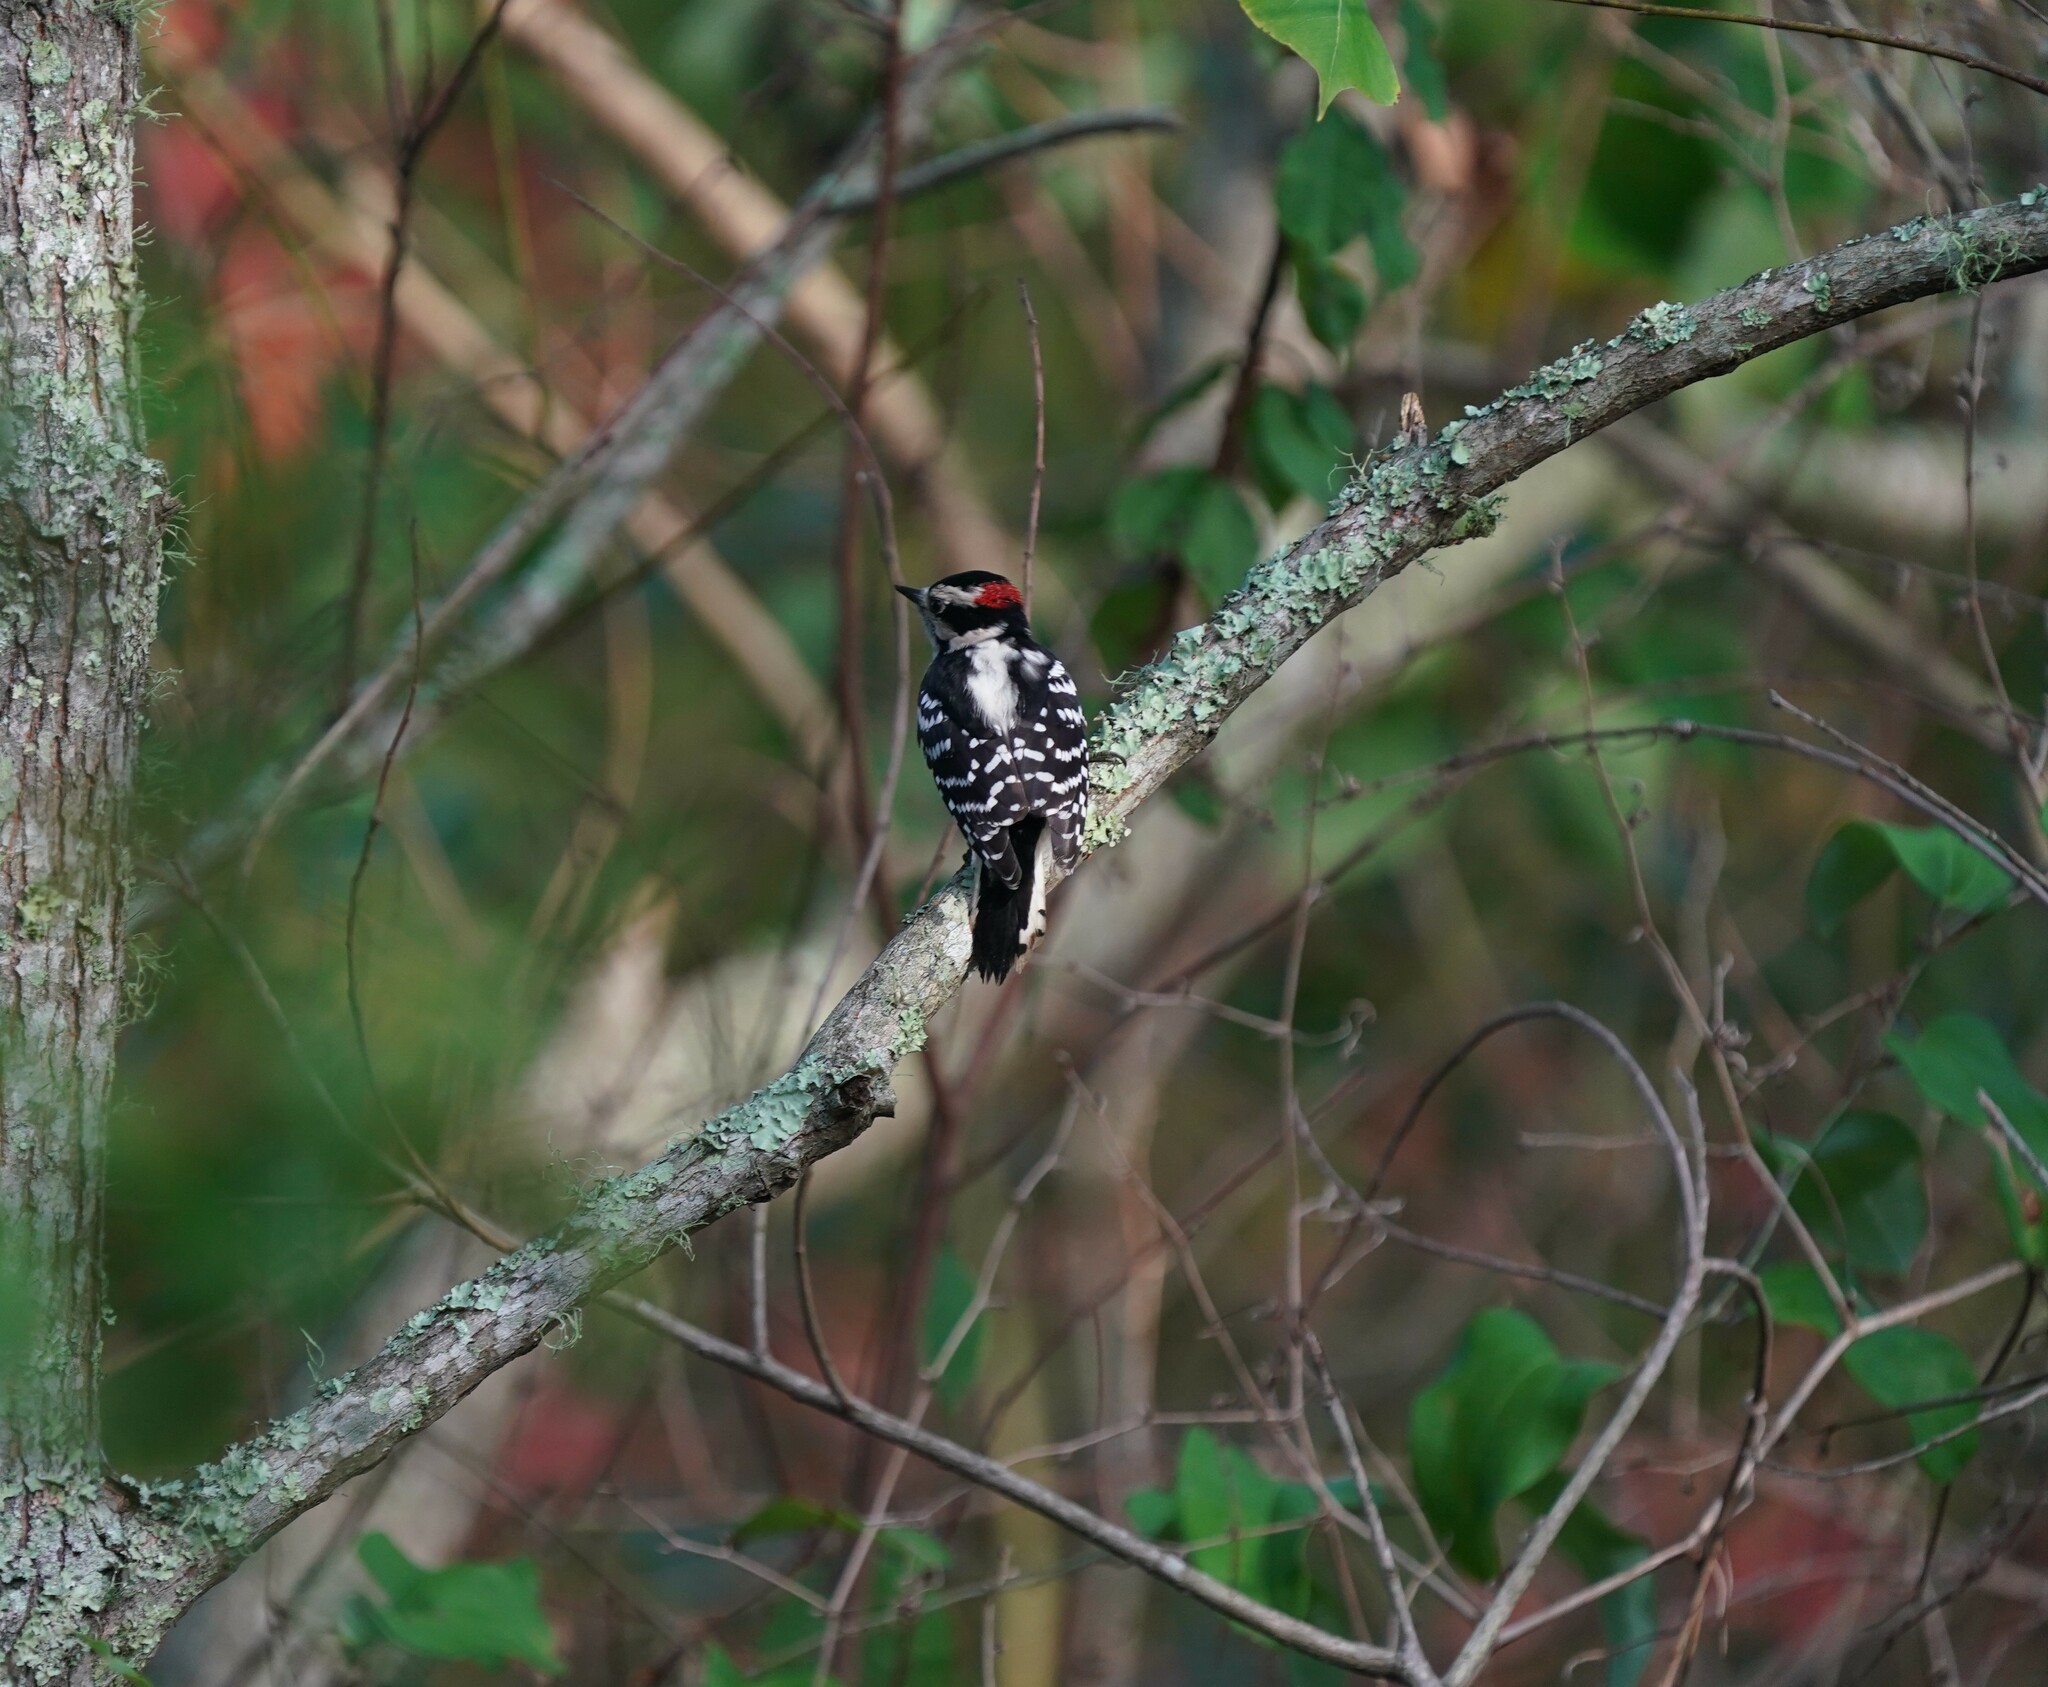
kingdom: Animalia
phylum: Chordata
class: Aves
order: Piciformes
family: Picidae
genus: Dryobates
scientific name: Dryobates pubescens
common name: Downy woodpecker
